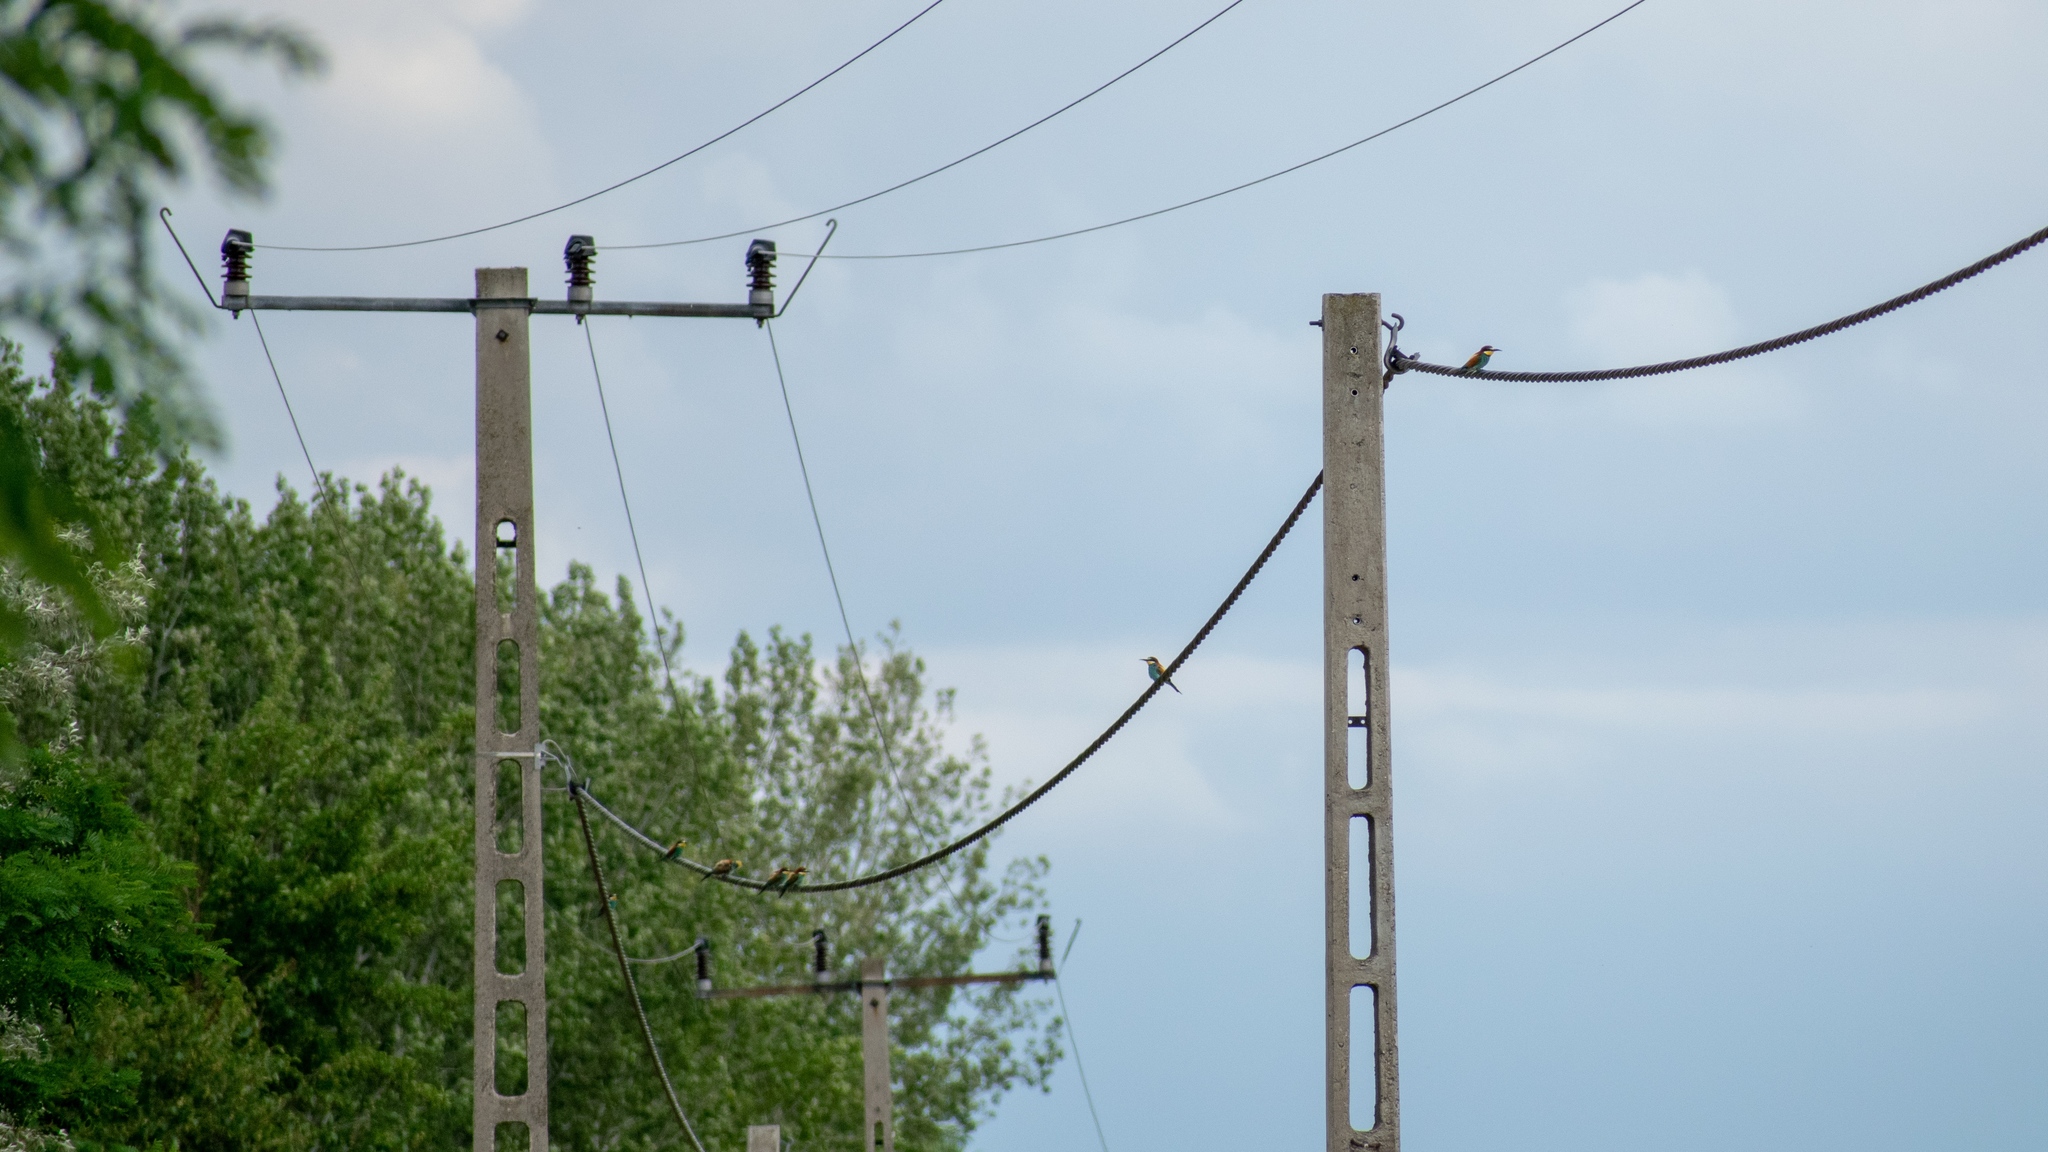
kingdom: Animalia
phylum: Chordata
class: Aves
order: Coraciiformes
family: Meropidae
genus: Merops
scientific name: Merops apiaster
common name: European bee-eater
